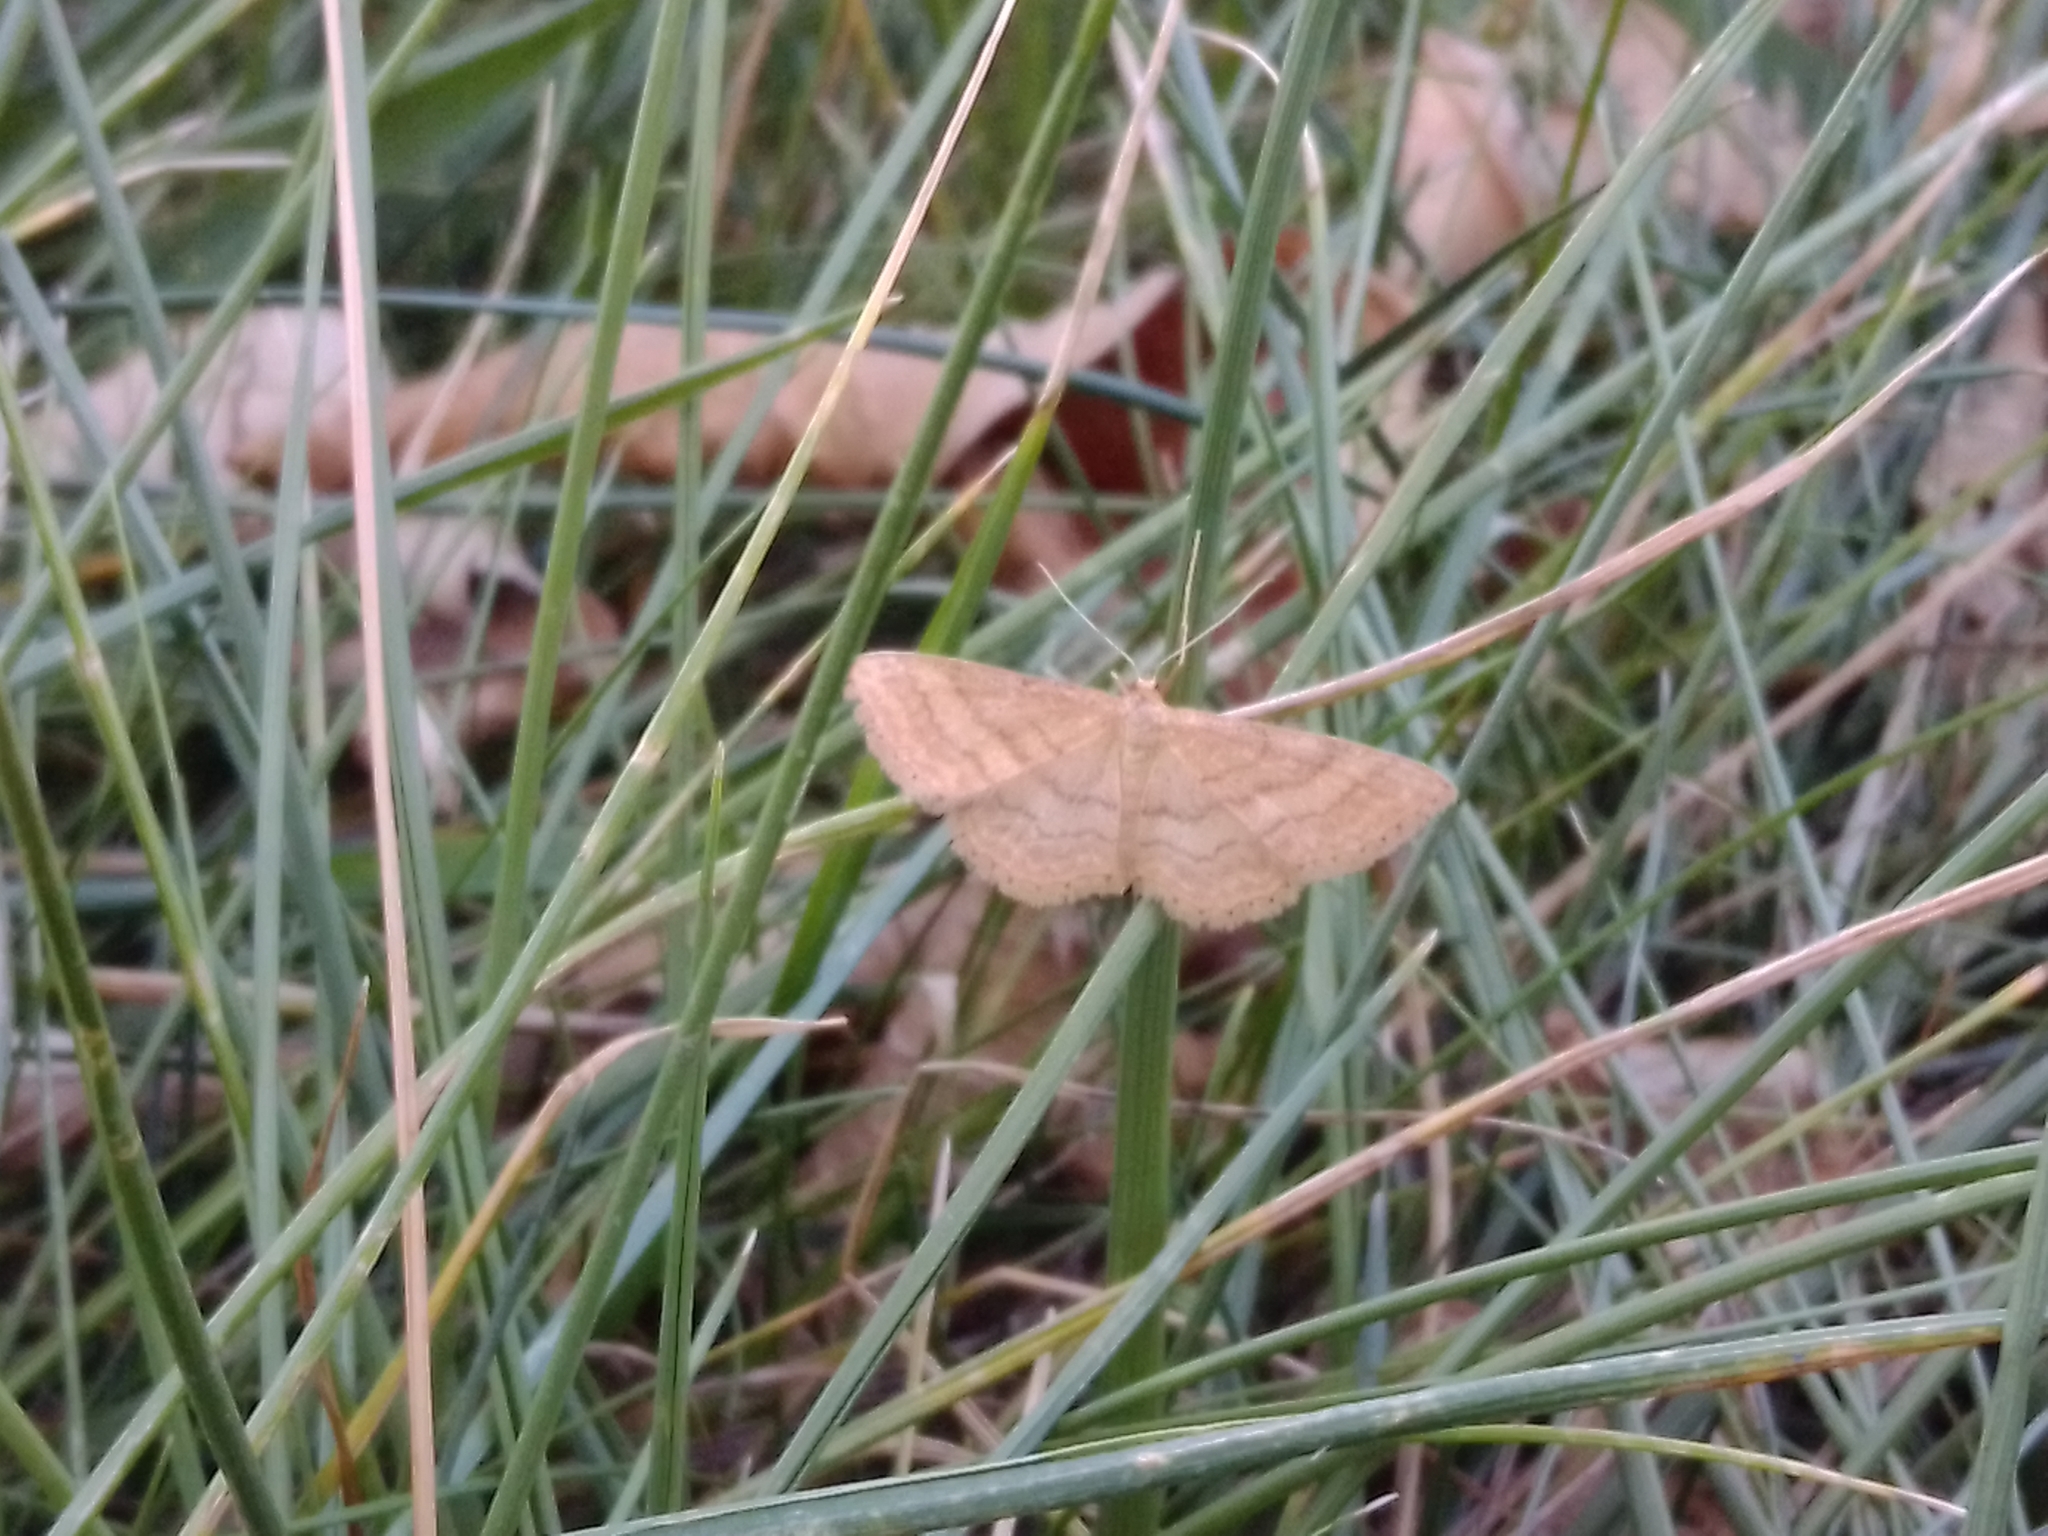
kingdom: Animalia
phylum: Arthropoda
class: Insecta
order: Lepidoptera
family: Geometridae
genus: Idaea
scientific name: Idaea ochrata
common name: Bright wave
